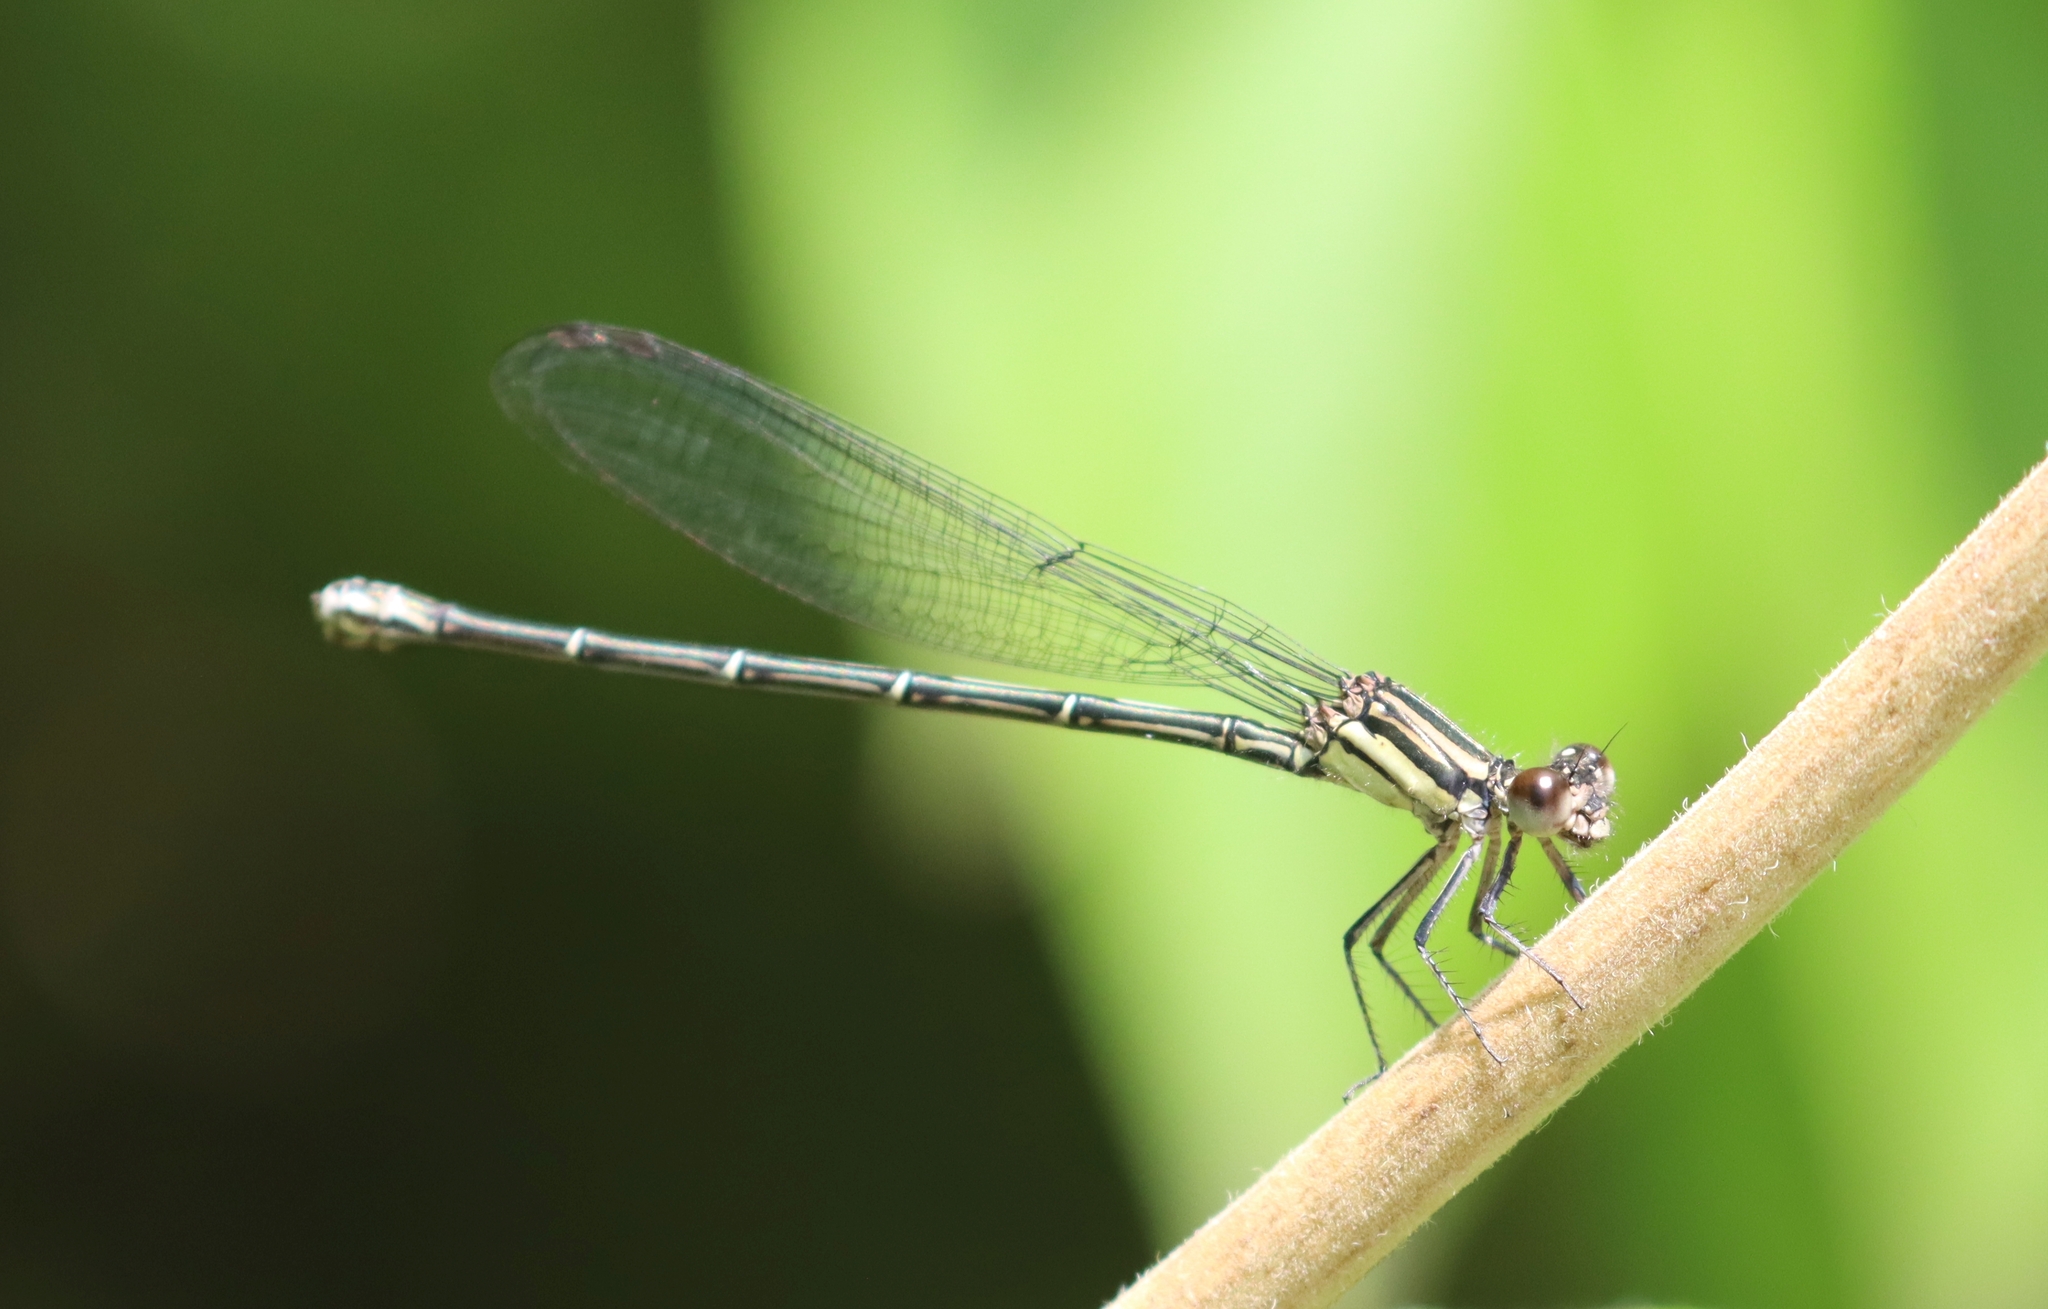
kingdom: Animalia
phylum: Arthropoda
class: Insecta
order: Odonata
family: Coenagrionidae
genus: Argia
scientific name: Argia translata
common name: Dusky dancer
